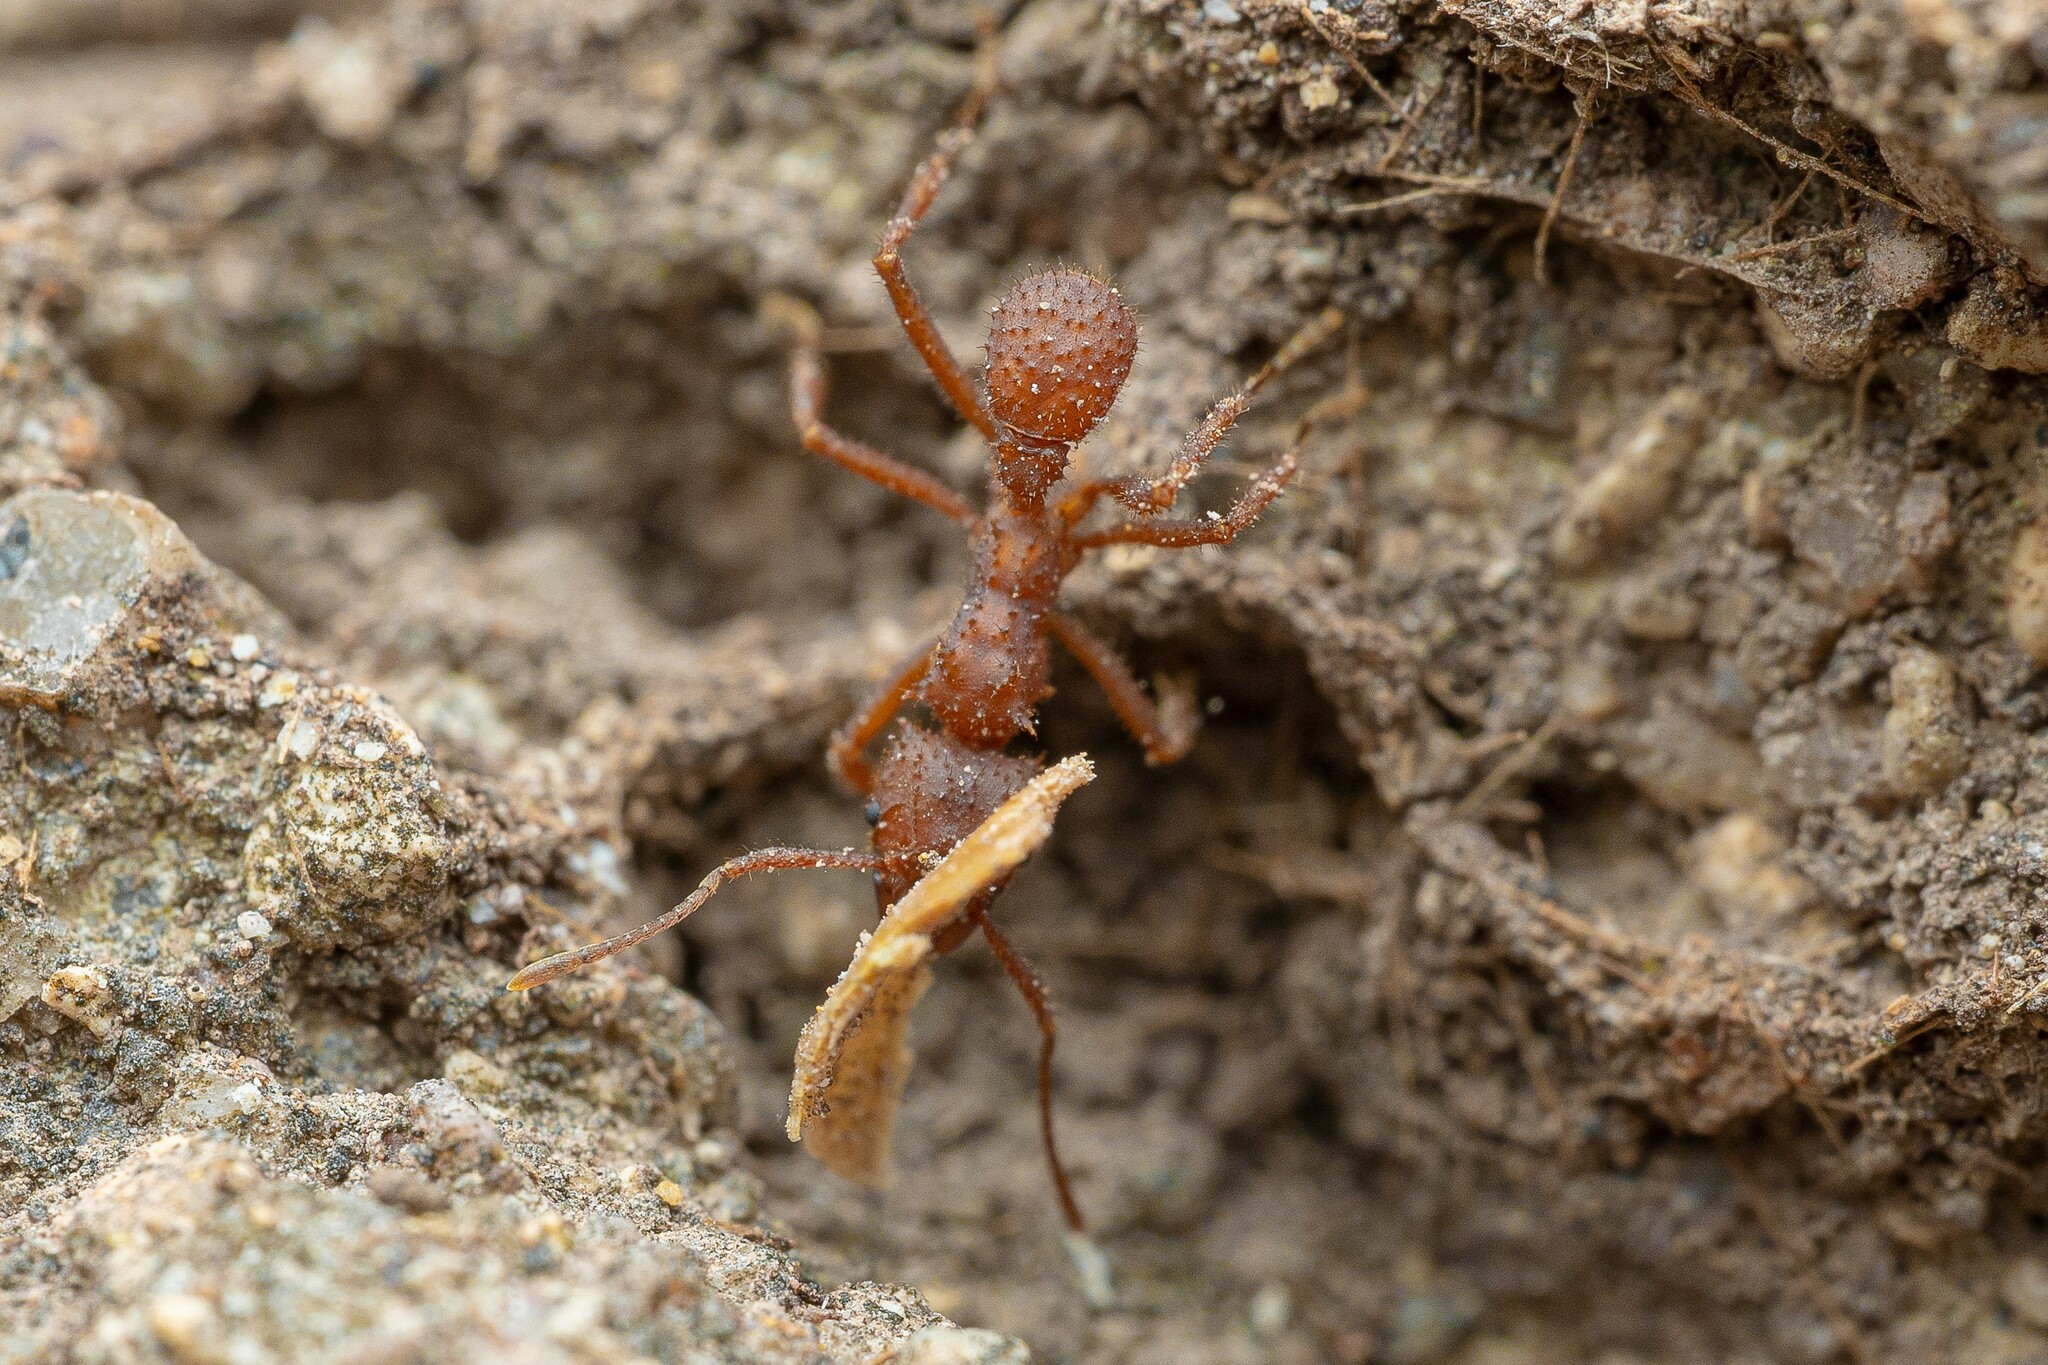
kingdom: Animalia
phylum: Arthropoda
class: Insecta
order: Hymenoptera
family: Formicidae
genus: Trachymyrmex
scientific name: Trachymyrmex arizonensis
